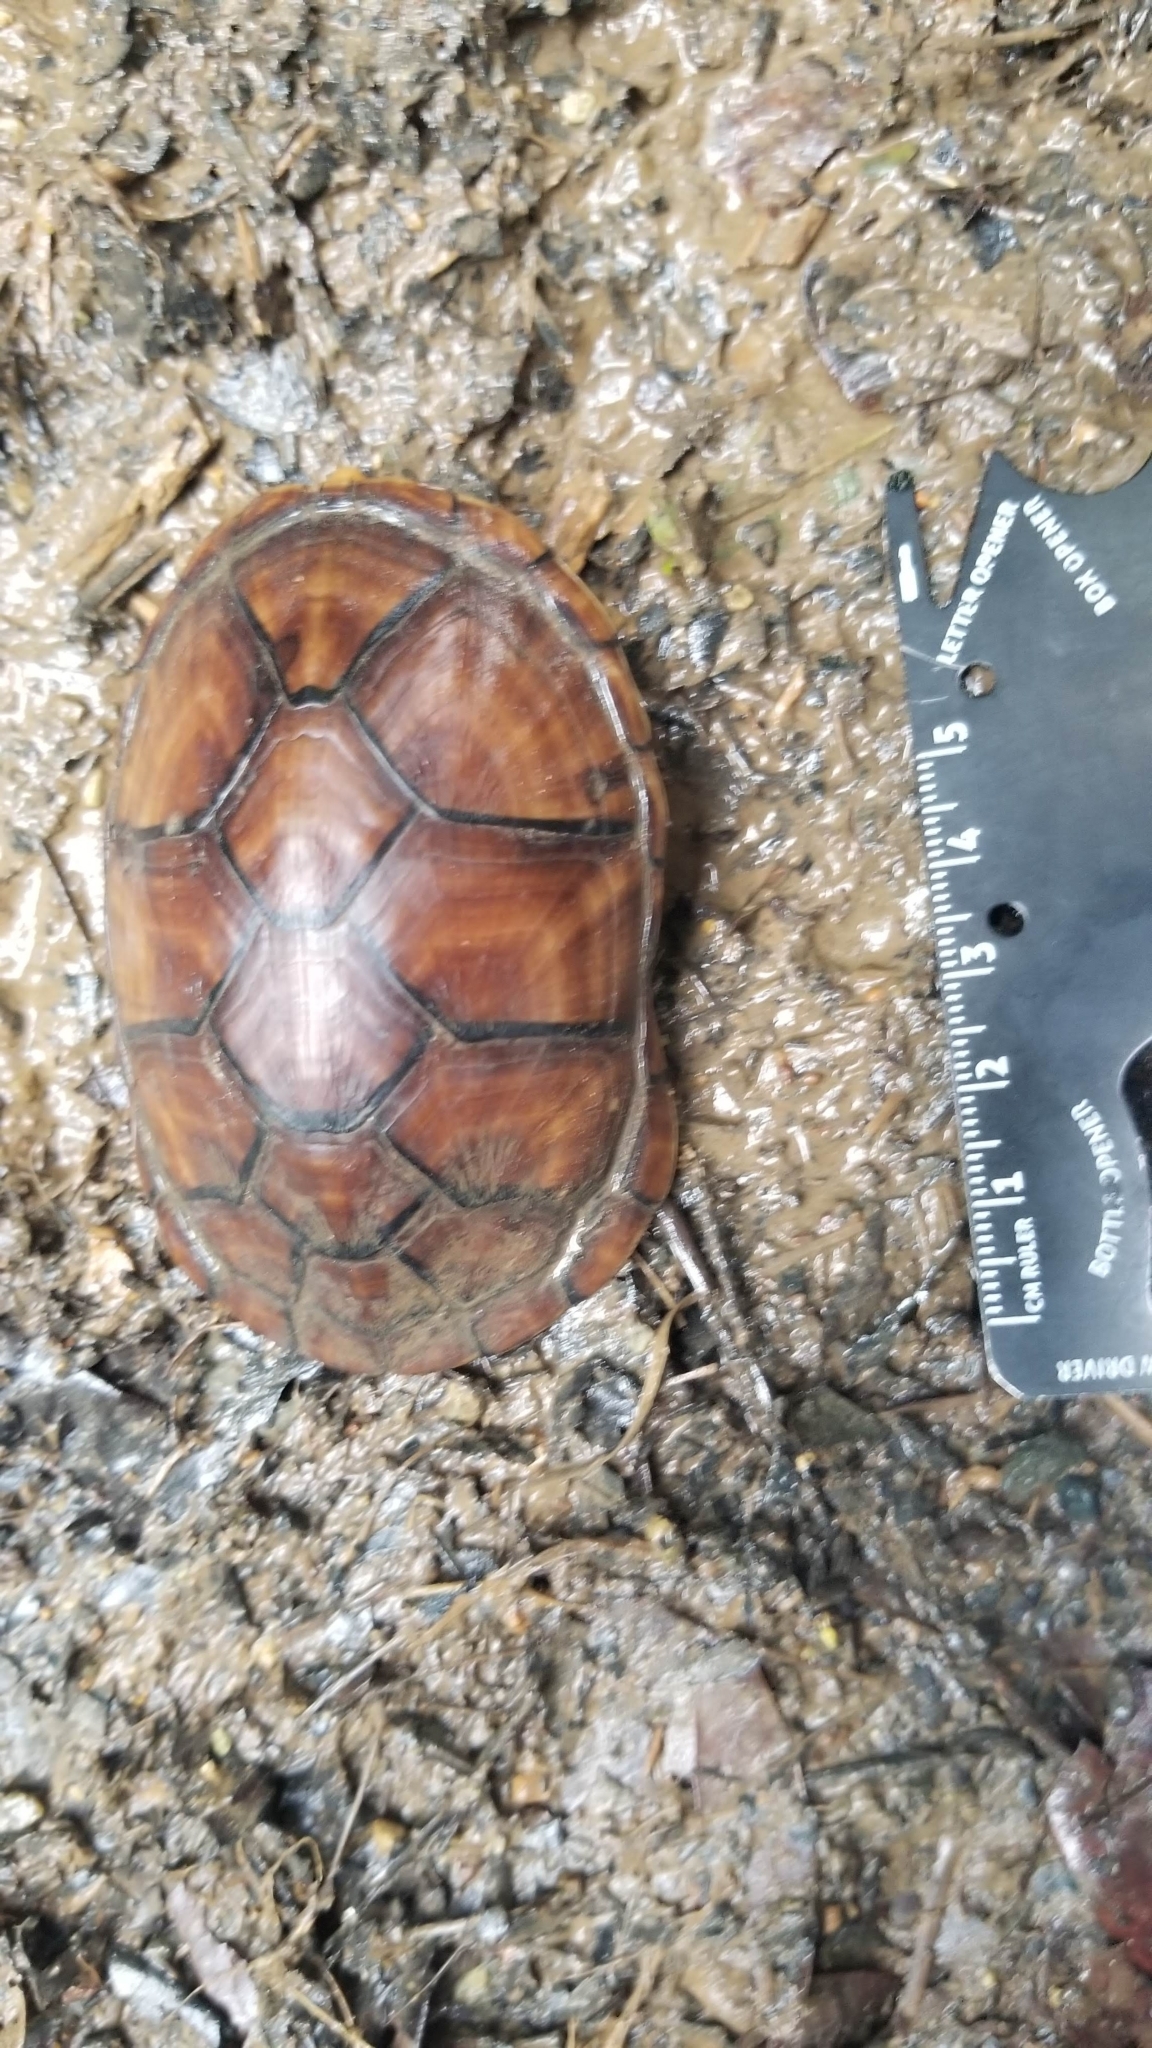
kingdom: Animalia
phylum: Chordata
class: Testudines
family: Kinosternidae
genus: Kinosternon
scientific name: Kinosternon leucostomum
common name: White-lipped mud turtle
